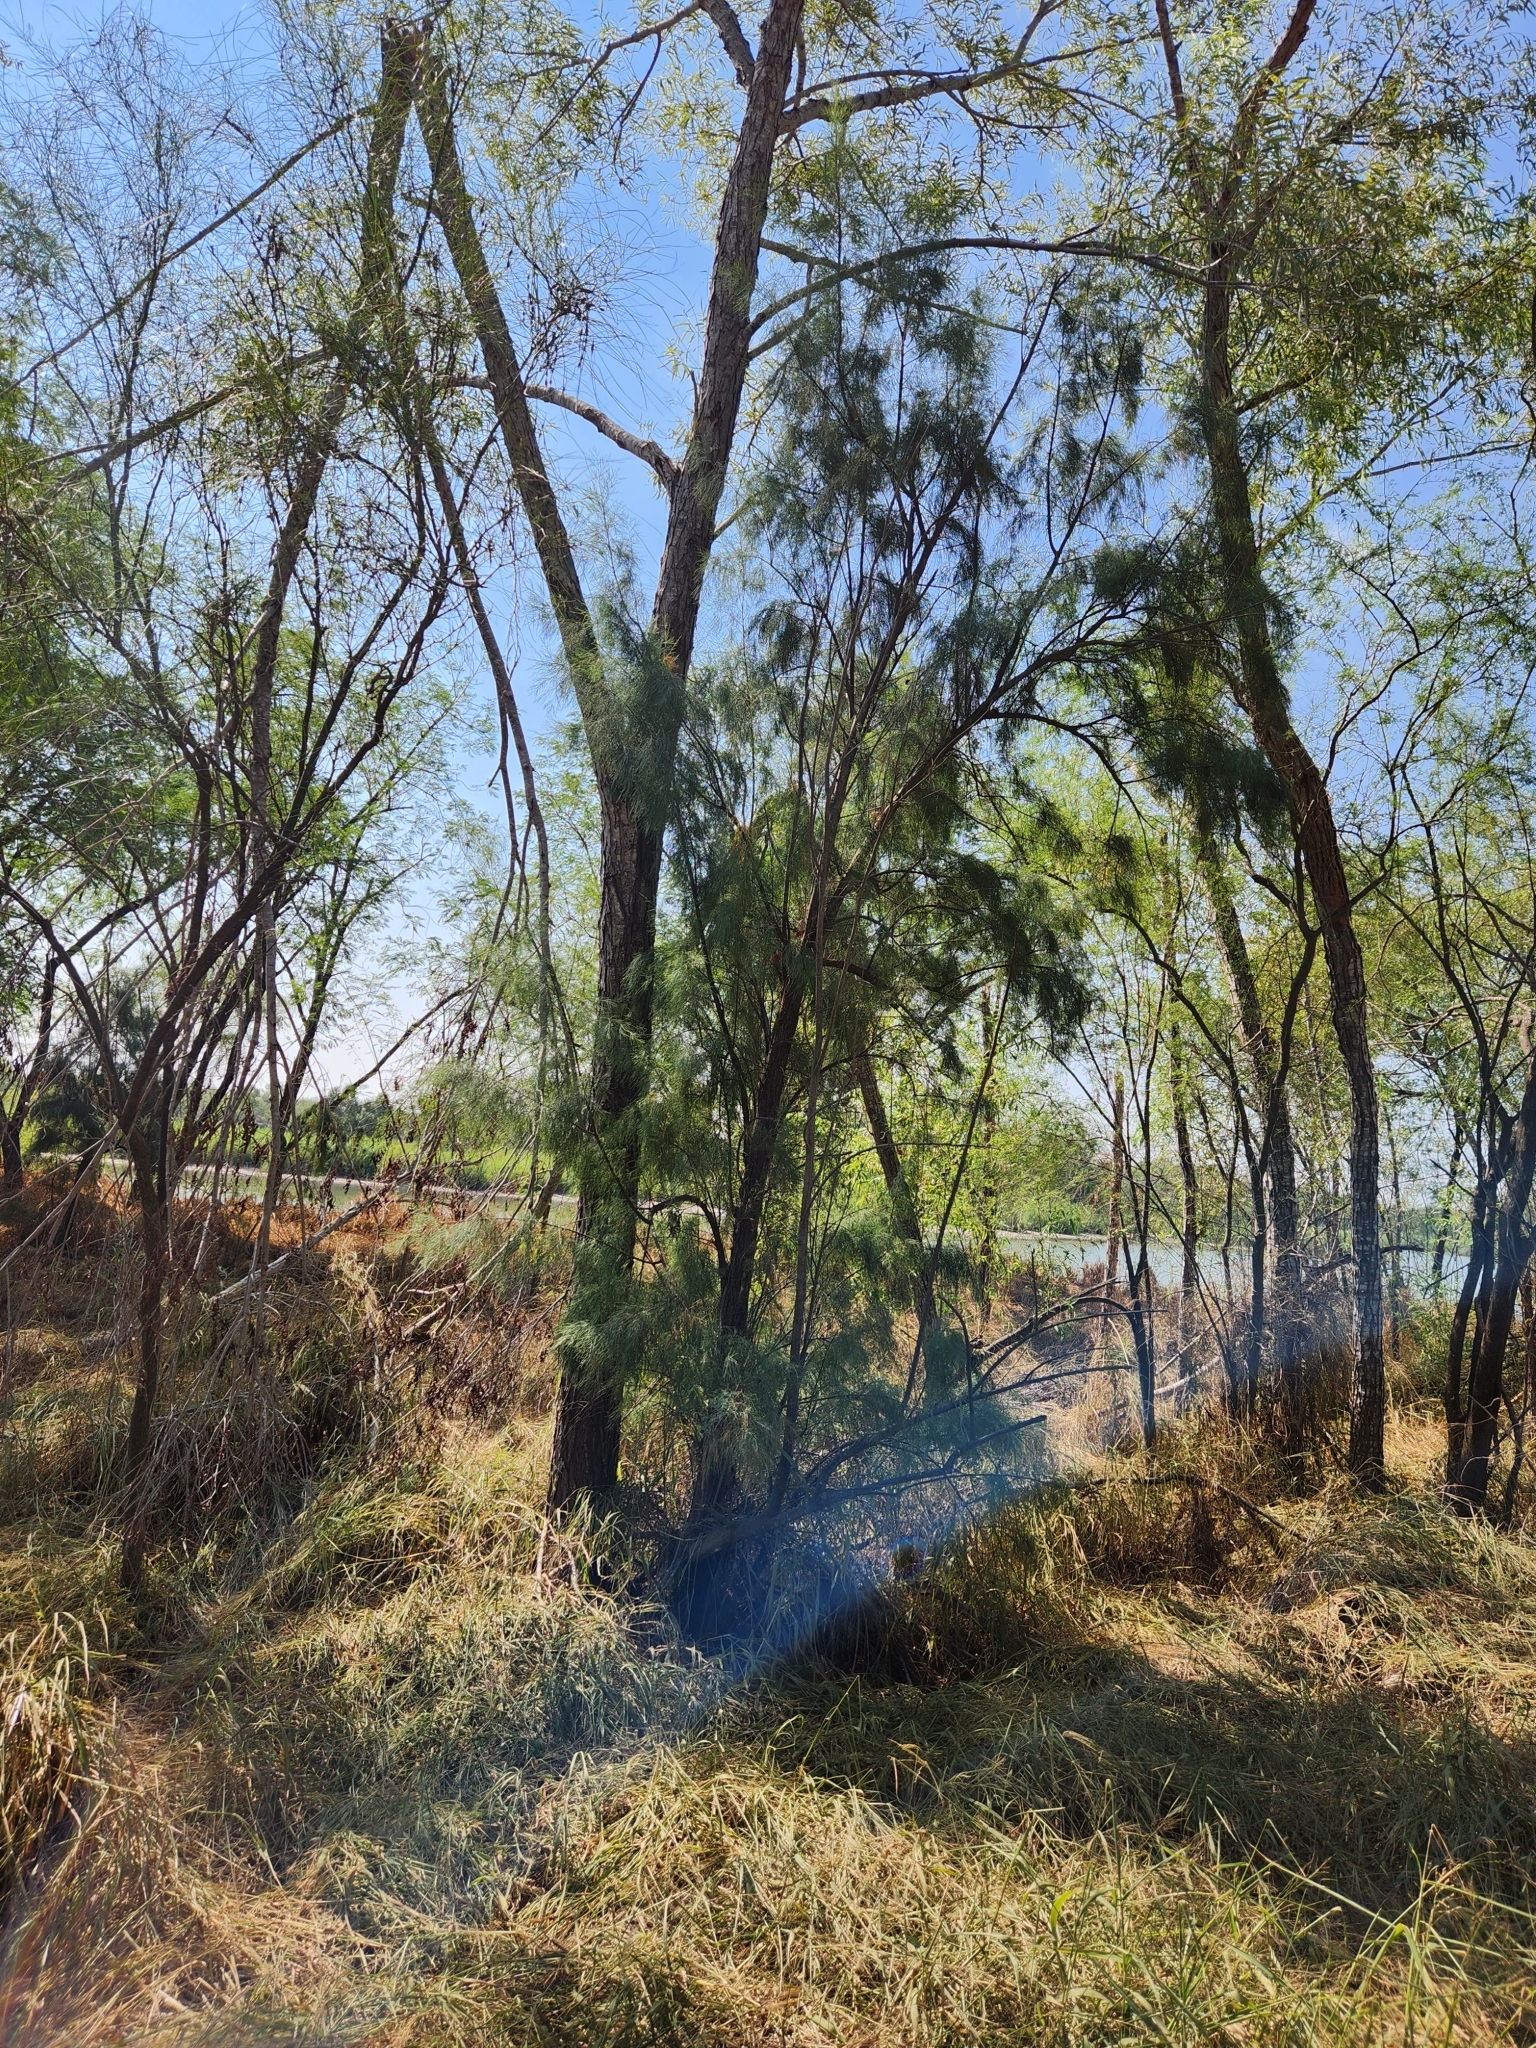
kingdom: Plantae
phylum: Tracheophyta
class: Magnoliopsida
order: Caryophyllales
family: Tamaricaceae
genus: Tamarix
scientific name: Tamarix aphylla
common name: Athel tamarisk
